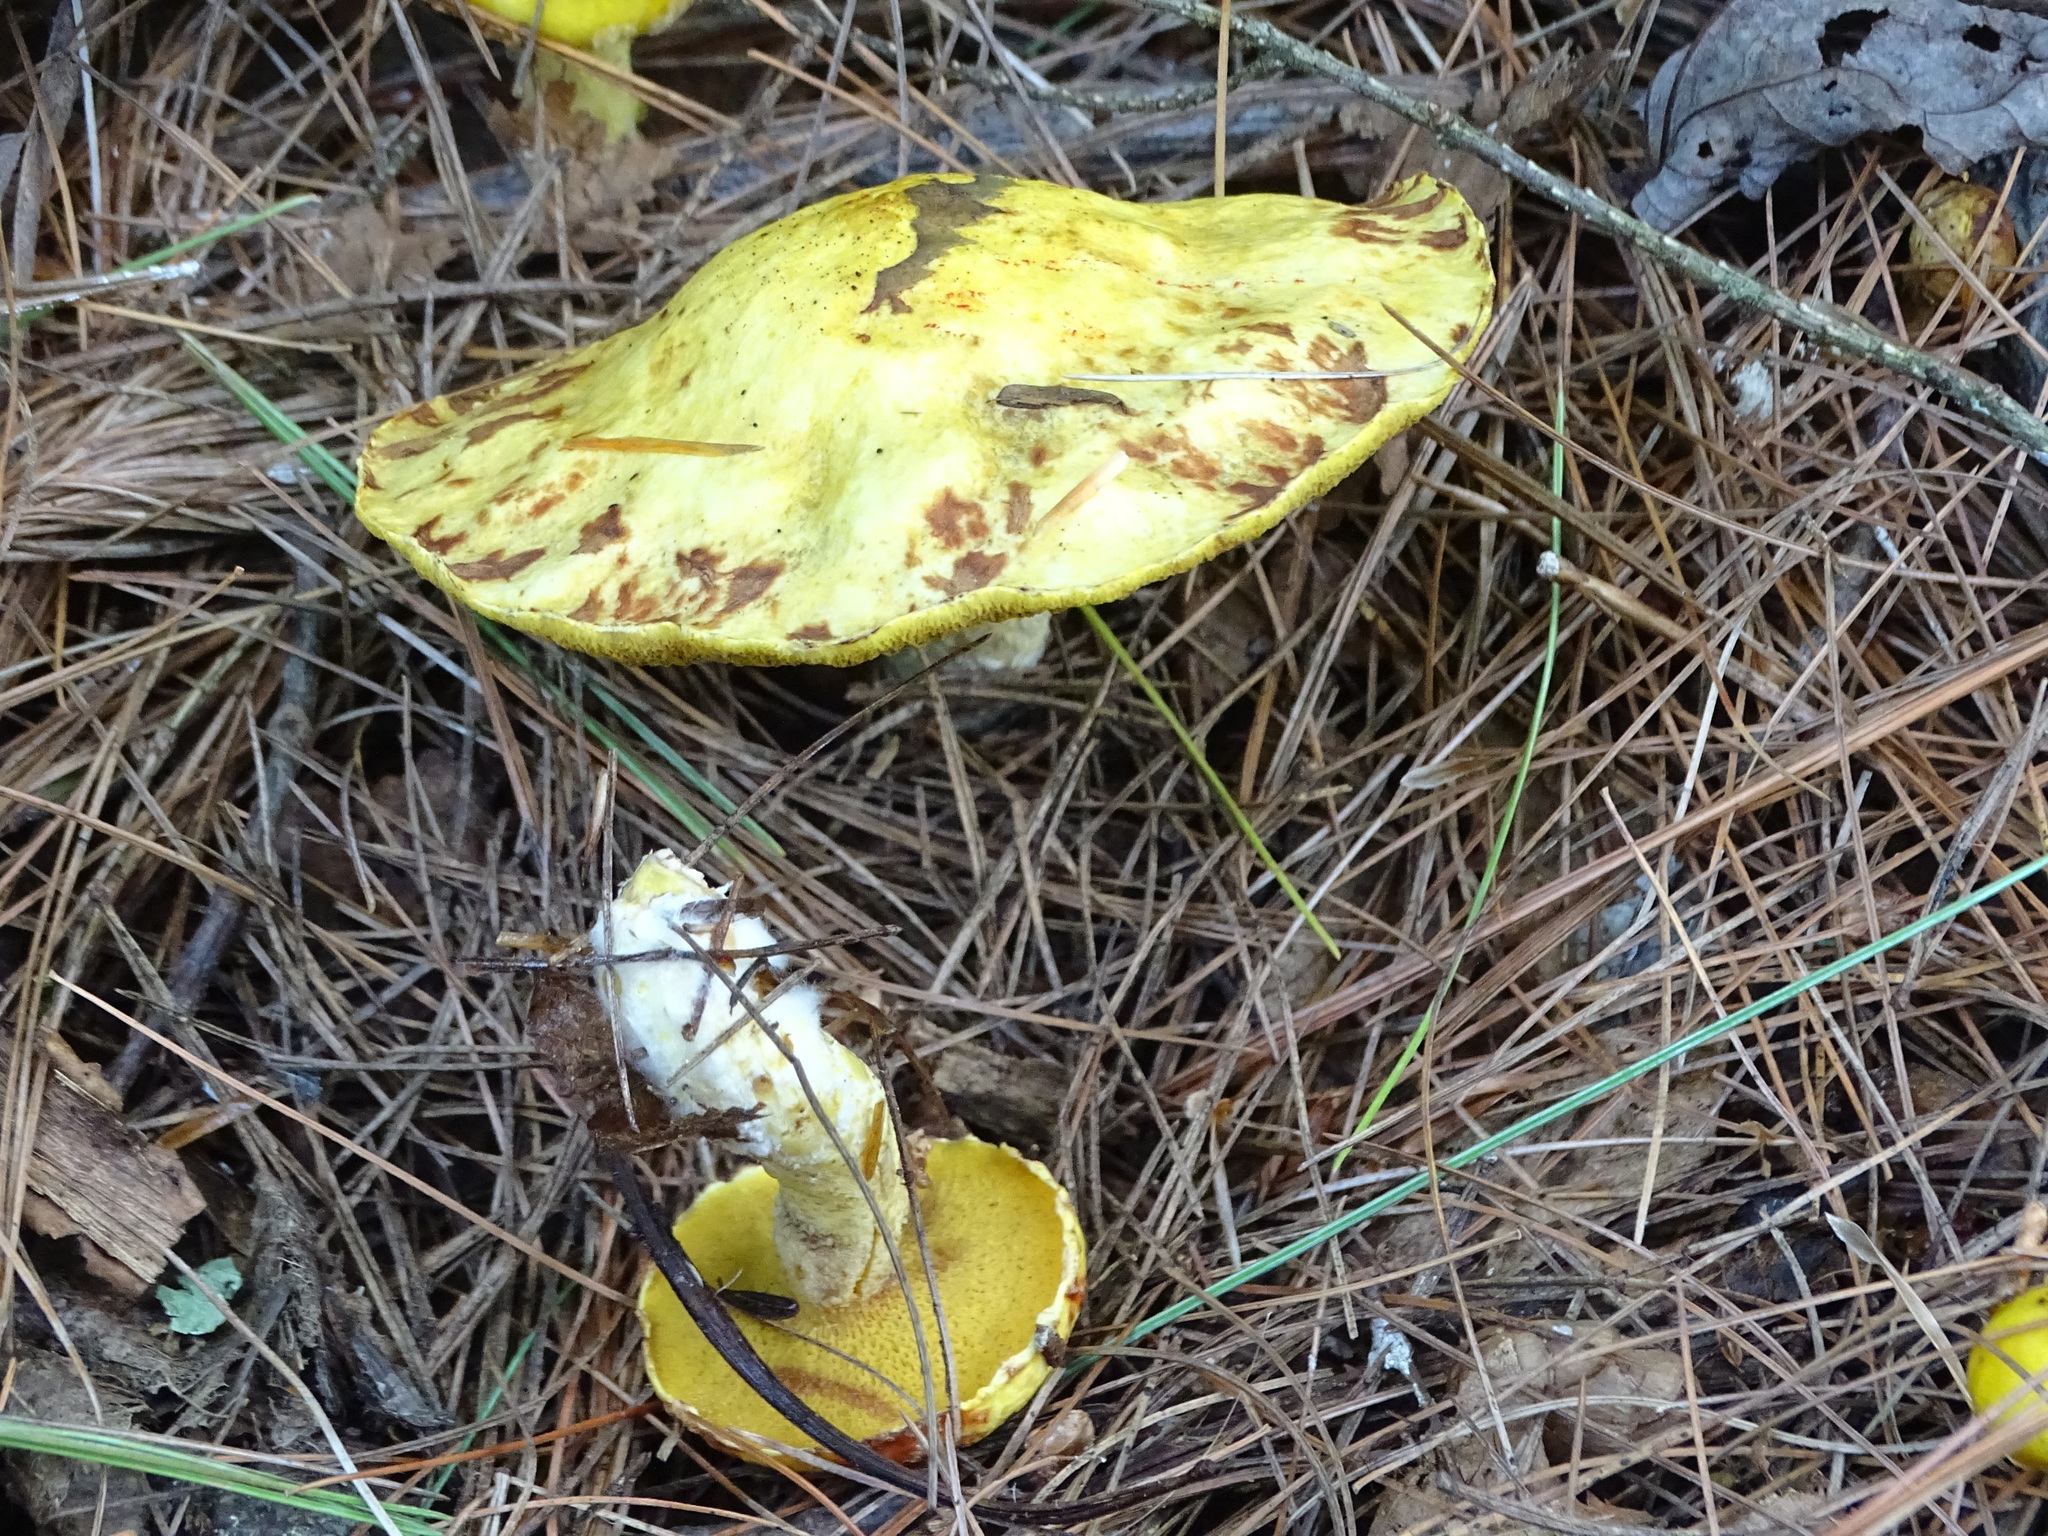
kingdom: Fungi
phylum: Basidiomycota
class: Agaricomycetes
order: Boletales
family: Suillaceae
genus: Suillus
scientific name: Suillus americanus
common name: Chicken fat mushroom
